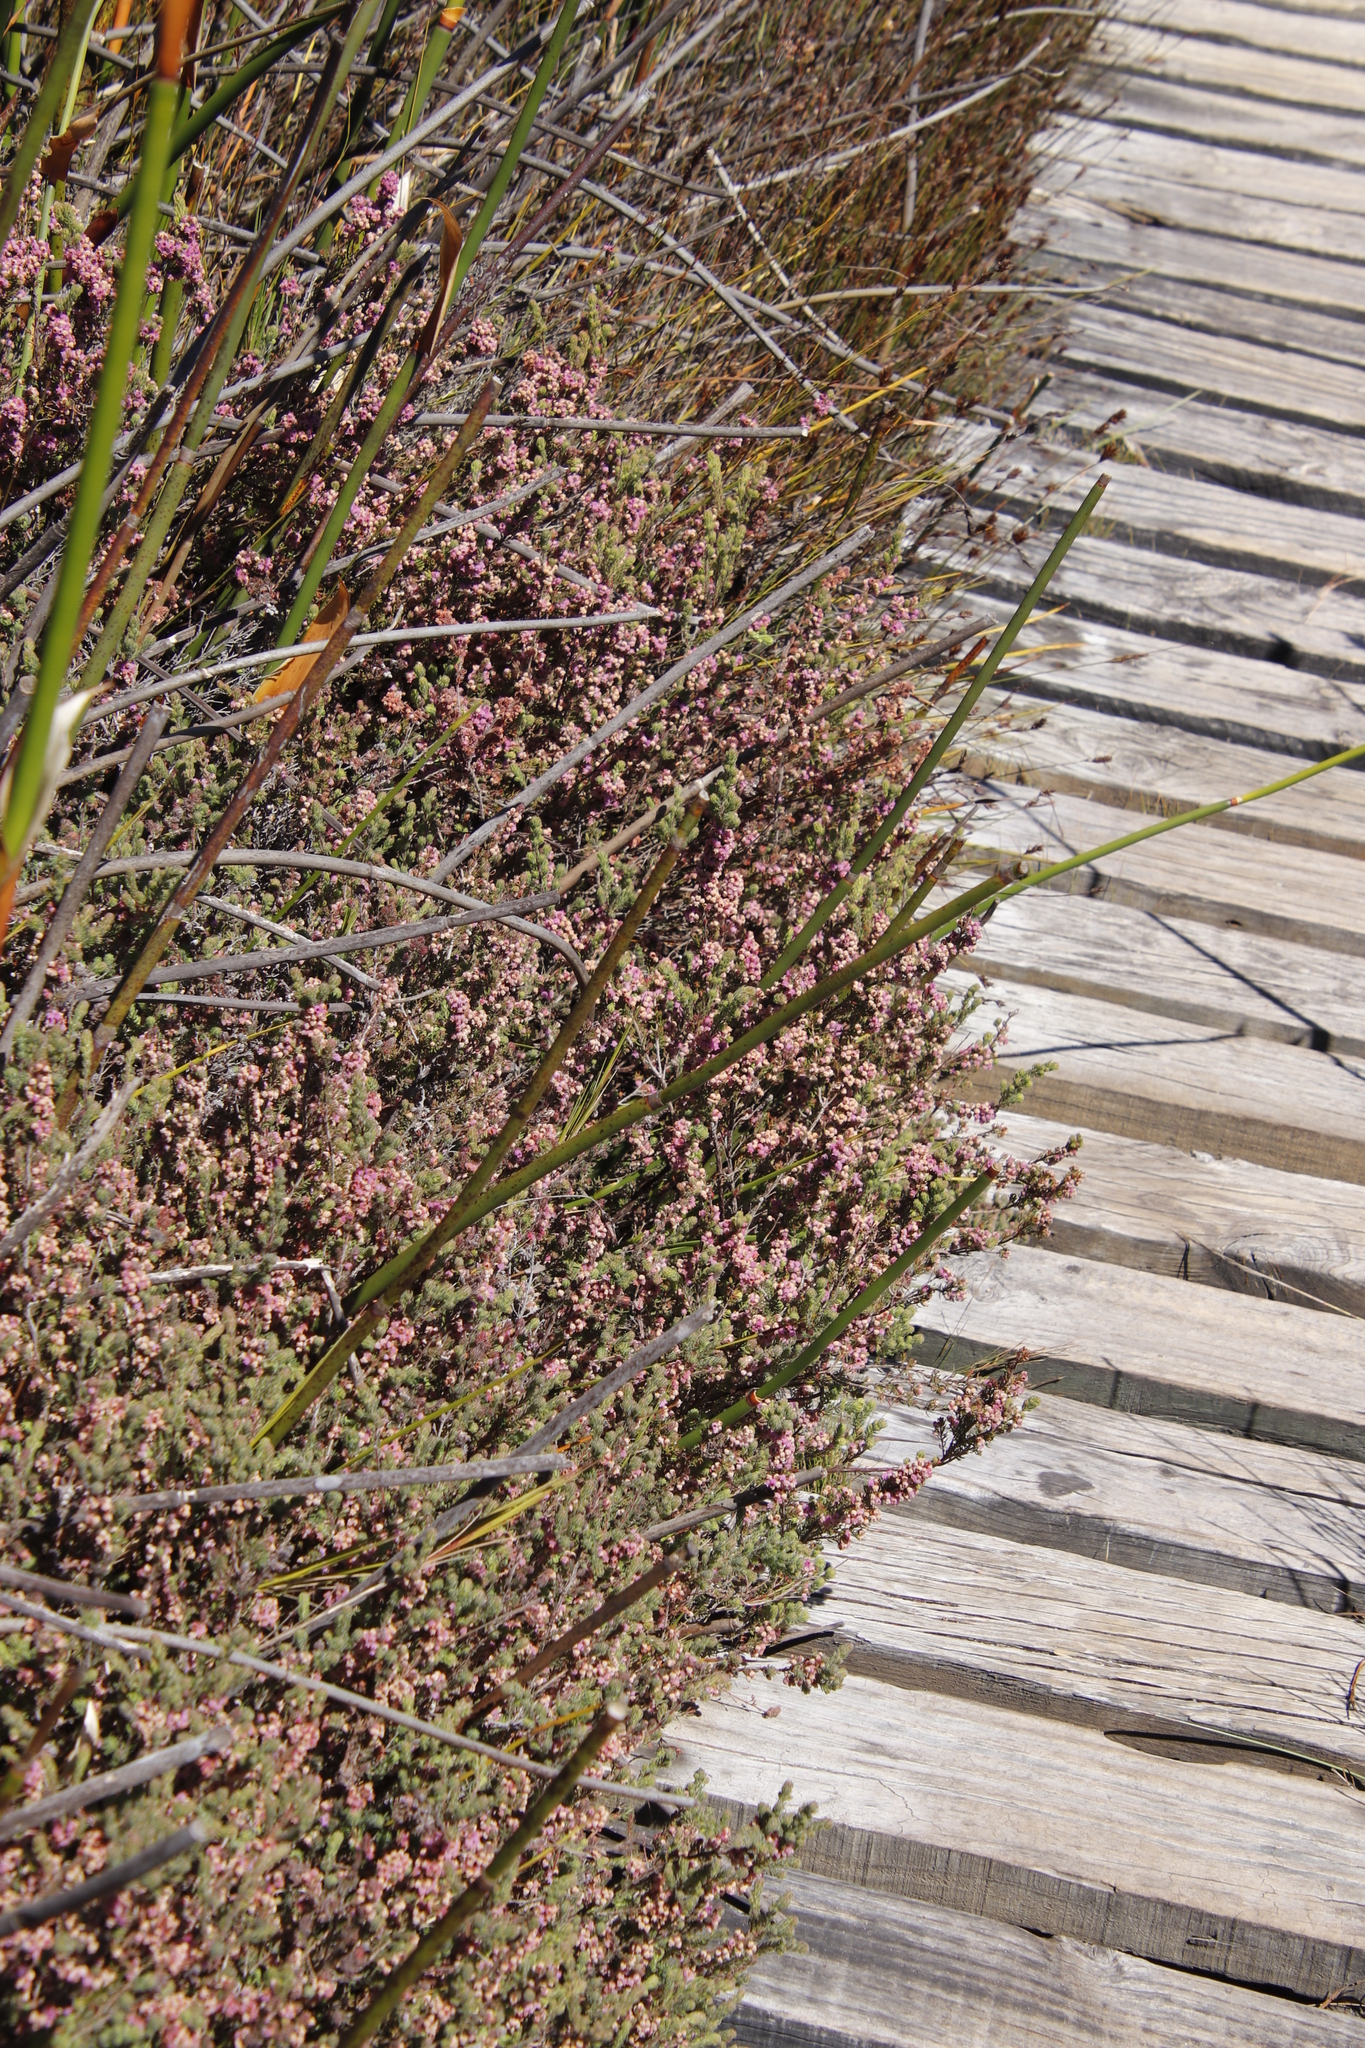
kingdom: Plantae
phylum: Tracheophyta
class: Magnoliopsida
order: Ericales
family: Ericaceae
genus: Erica
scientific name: Erica mollis
